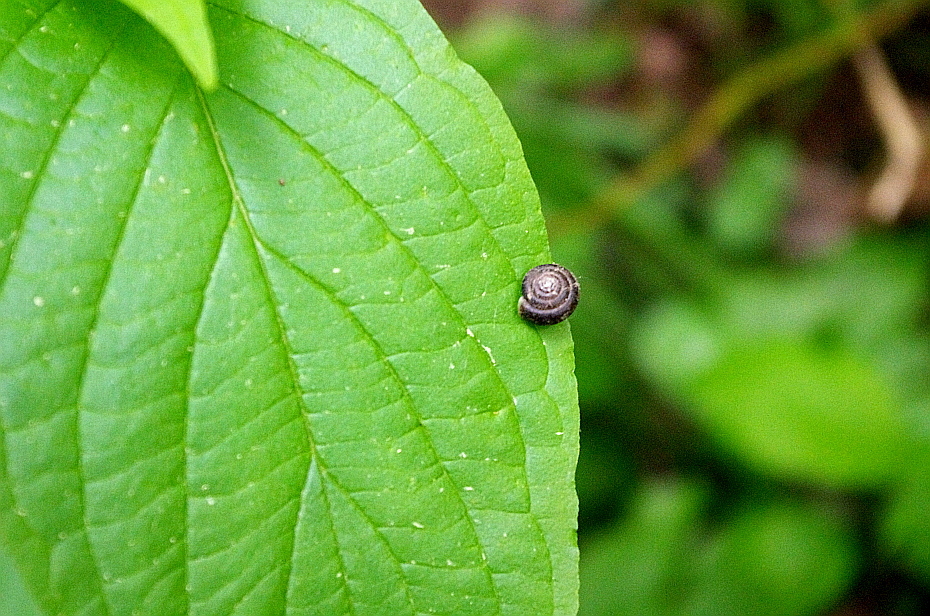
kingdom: Plantae
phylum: Tracheophyta
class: Magnoliopsida
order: Cornales
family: Cornaceae
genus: Cornus
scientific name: Cornus sericea
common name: Red-osier dogwood
